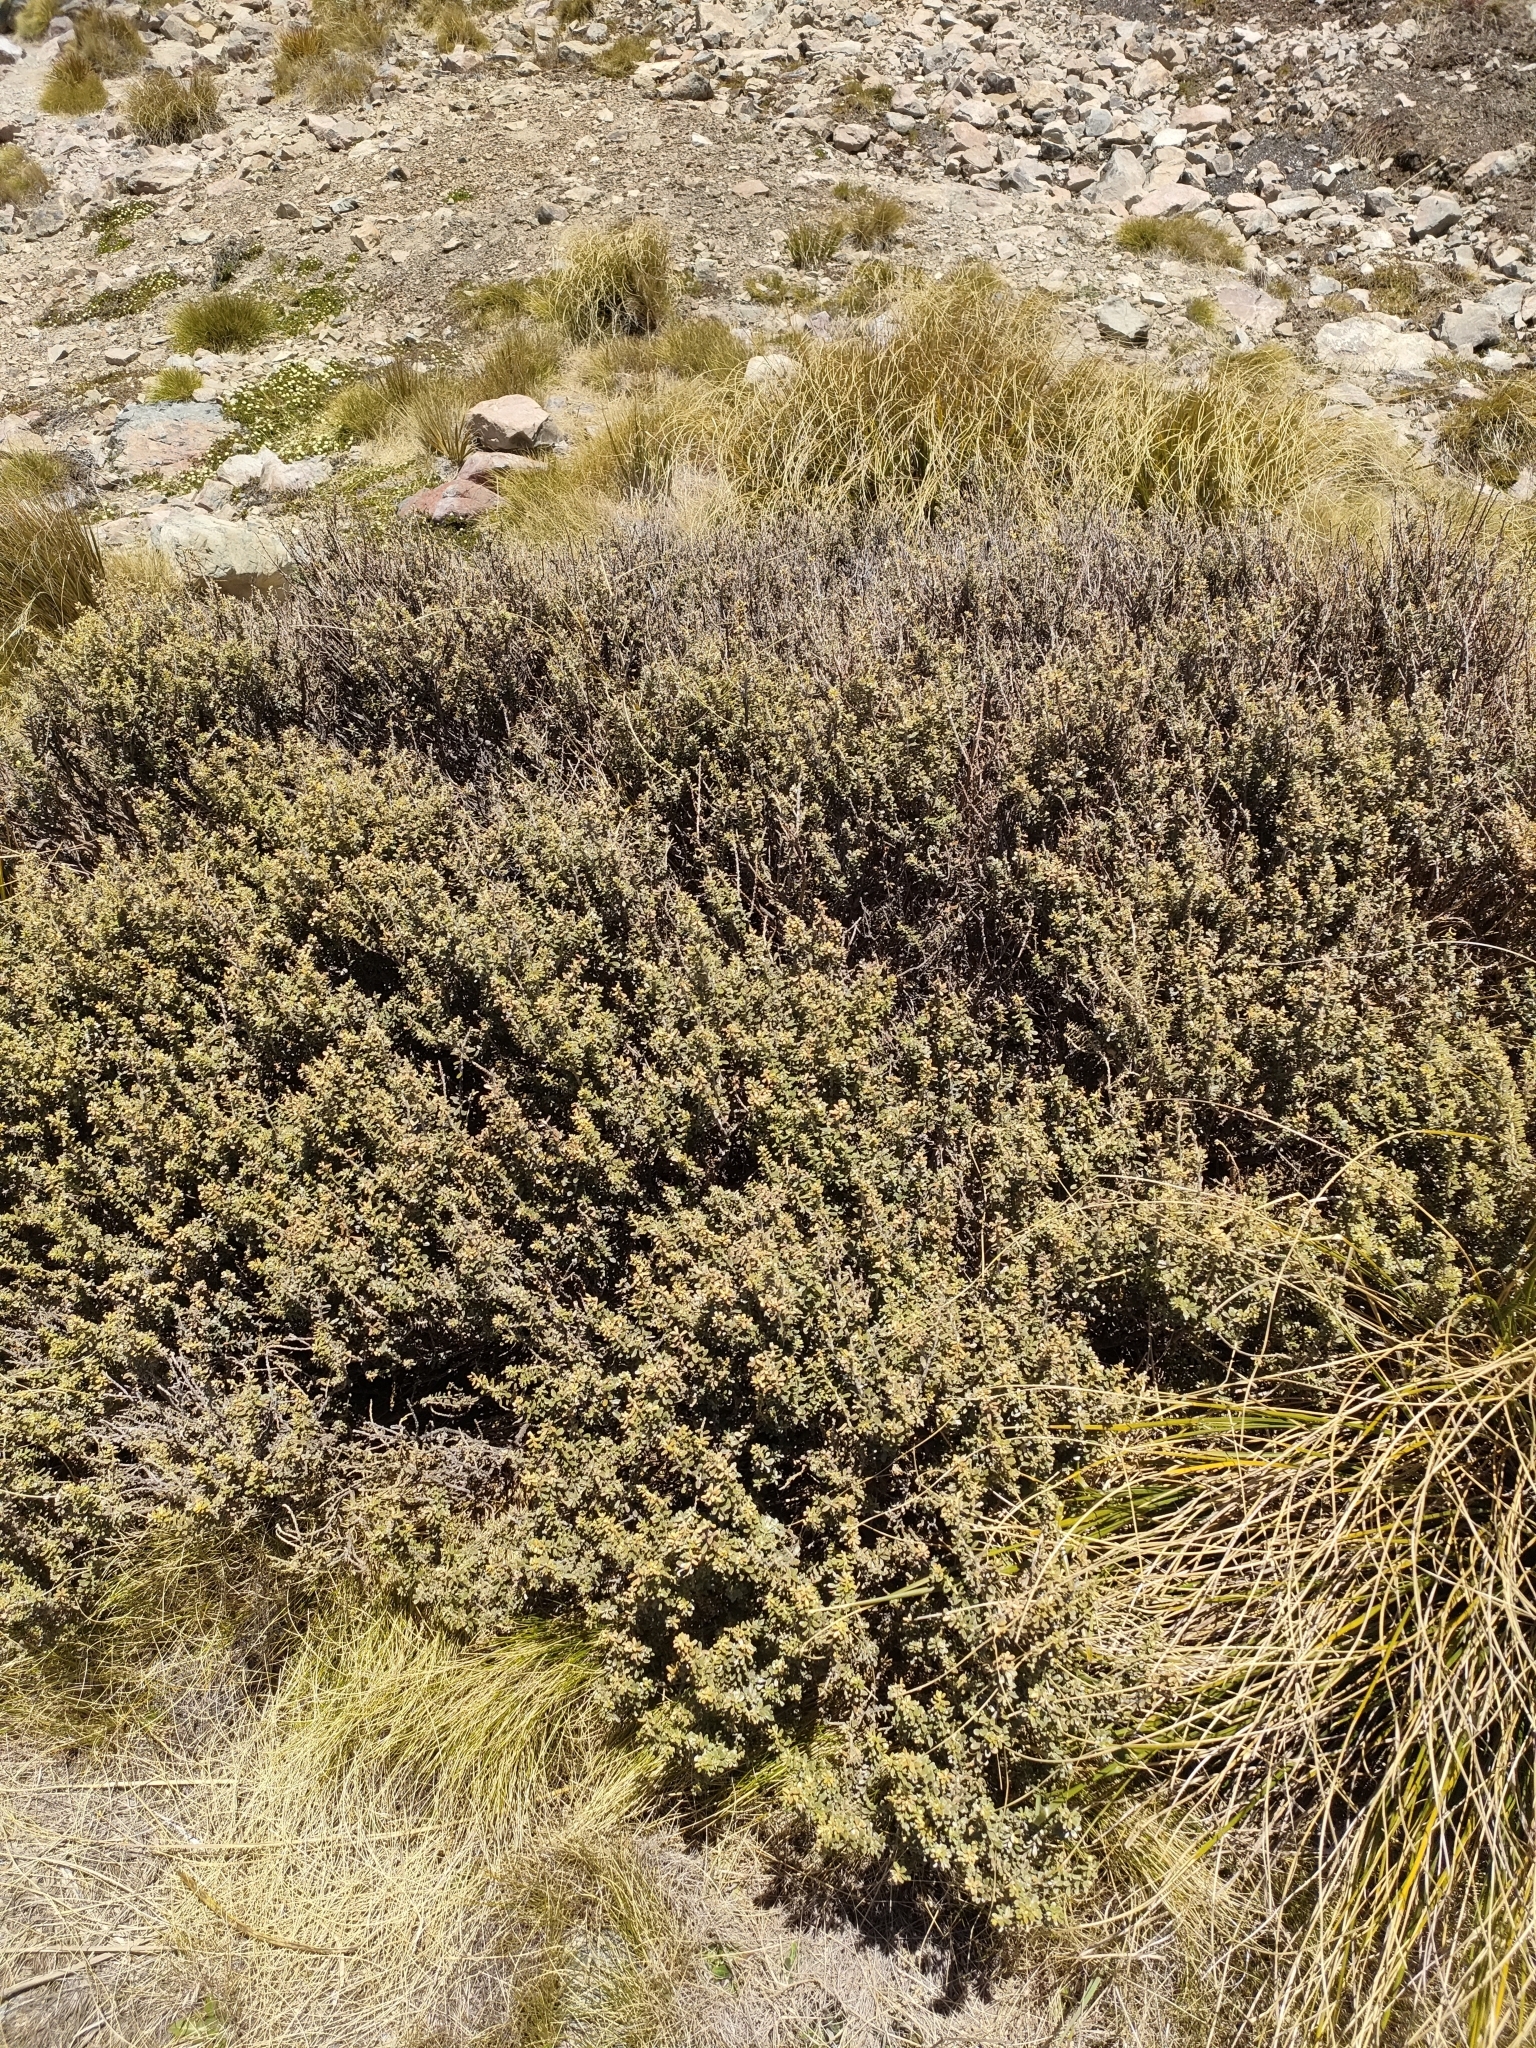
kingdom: Plantae
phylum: Tracheophyta
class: Magnoliopsida
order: Asterales
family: Asteraceae
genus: Ozothamnus
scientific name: Ozothamnus leptophyllus
